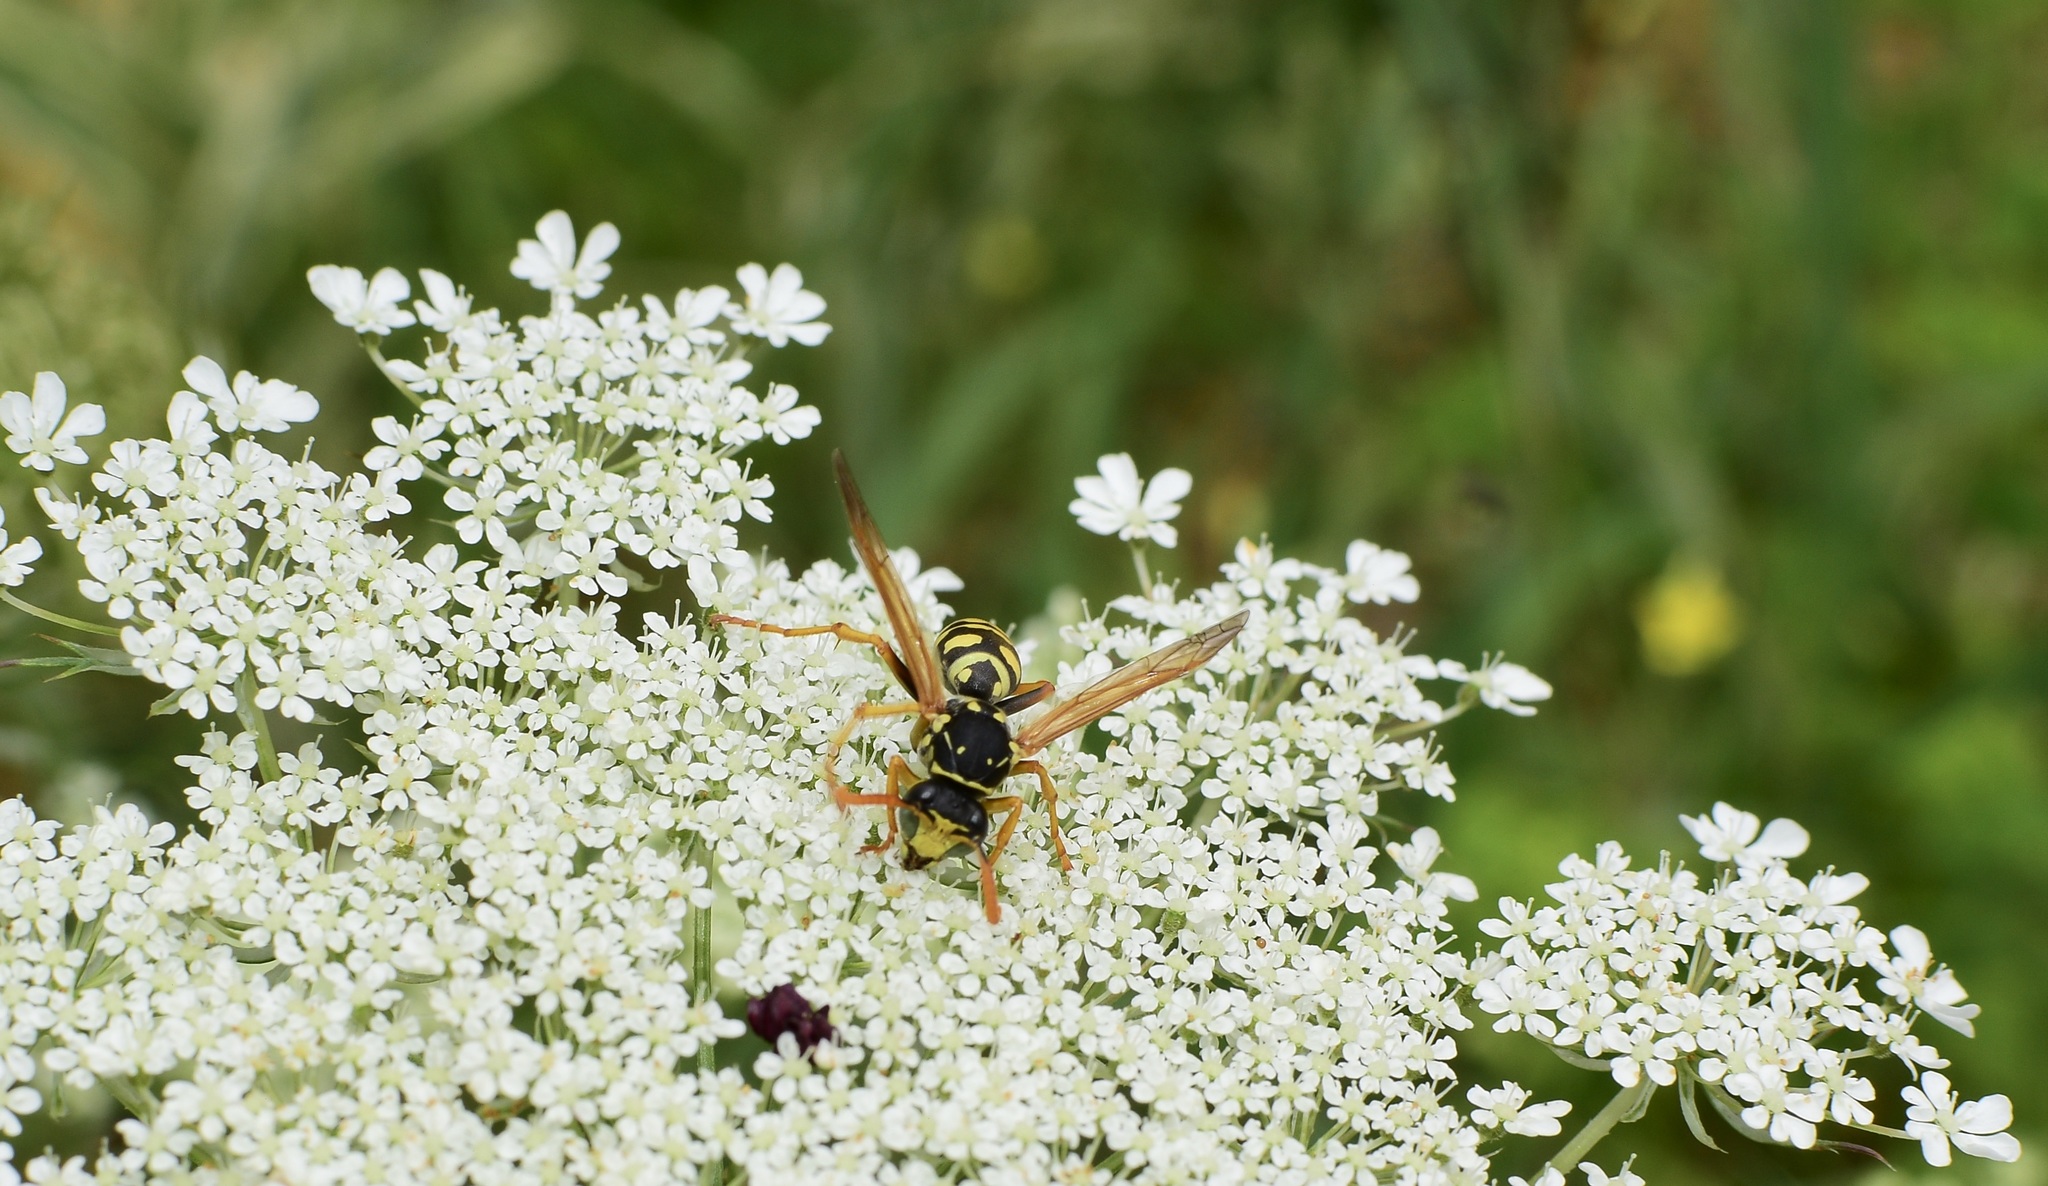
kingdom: Animalia
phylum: Arthropoda
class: Insecta
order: Hymenoptera
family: Eumenidae
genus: Polistes
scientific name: Polistes dominula
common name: Paper wasp
